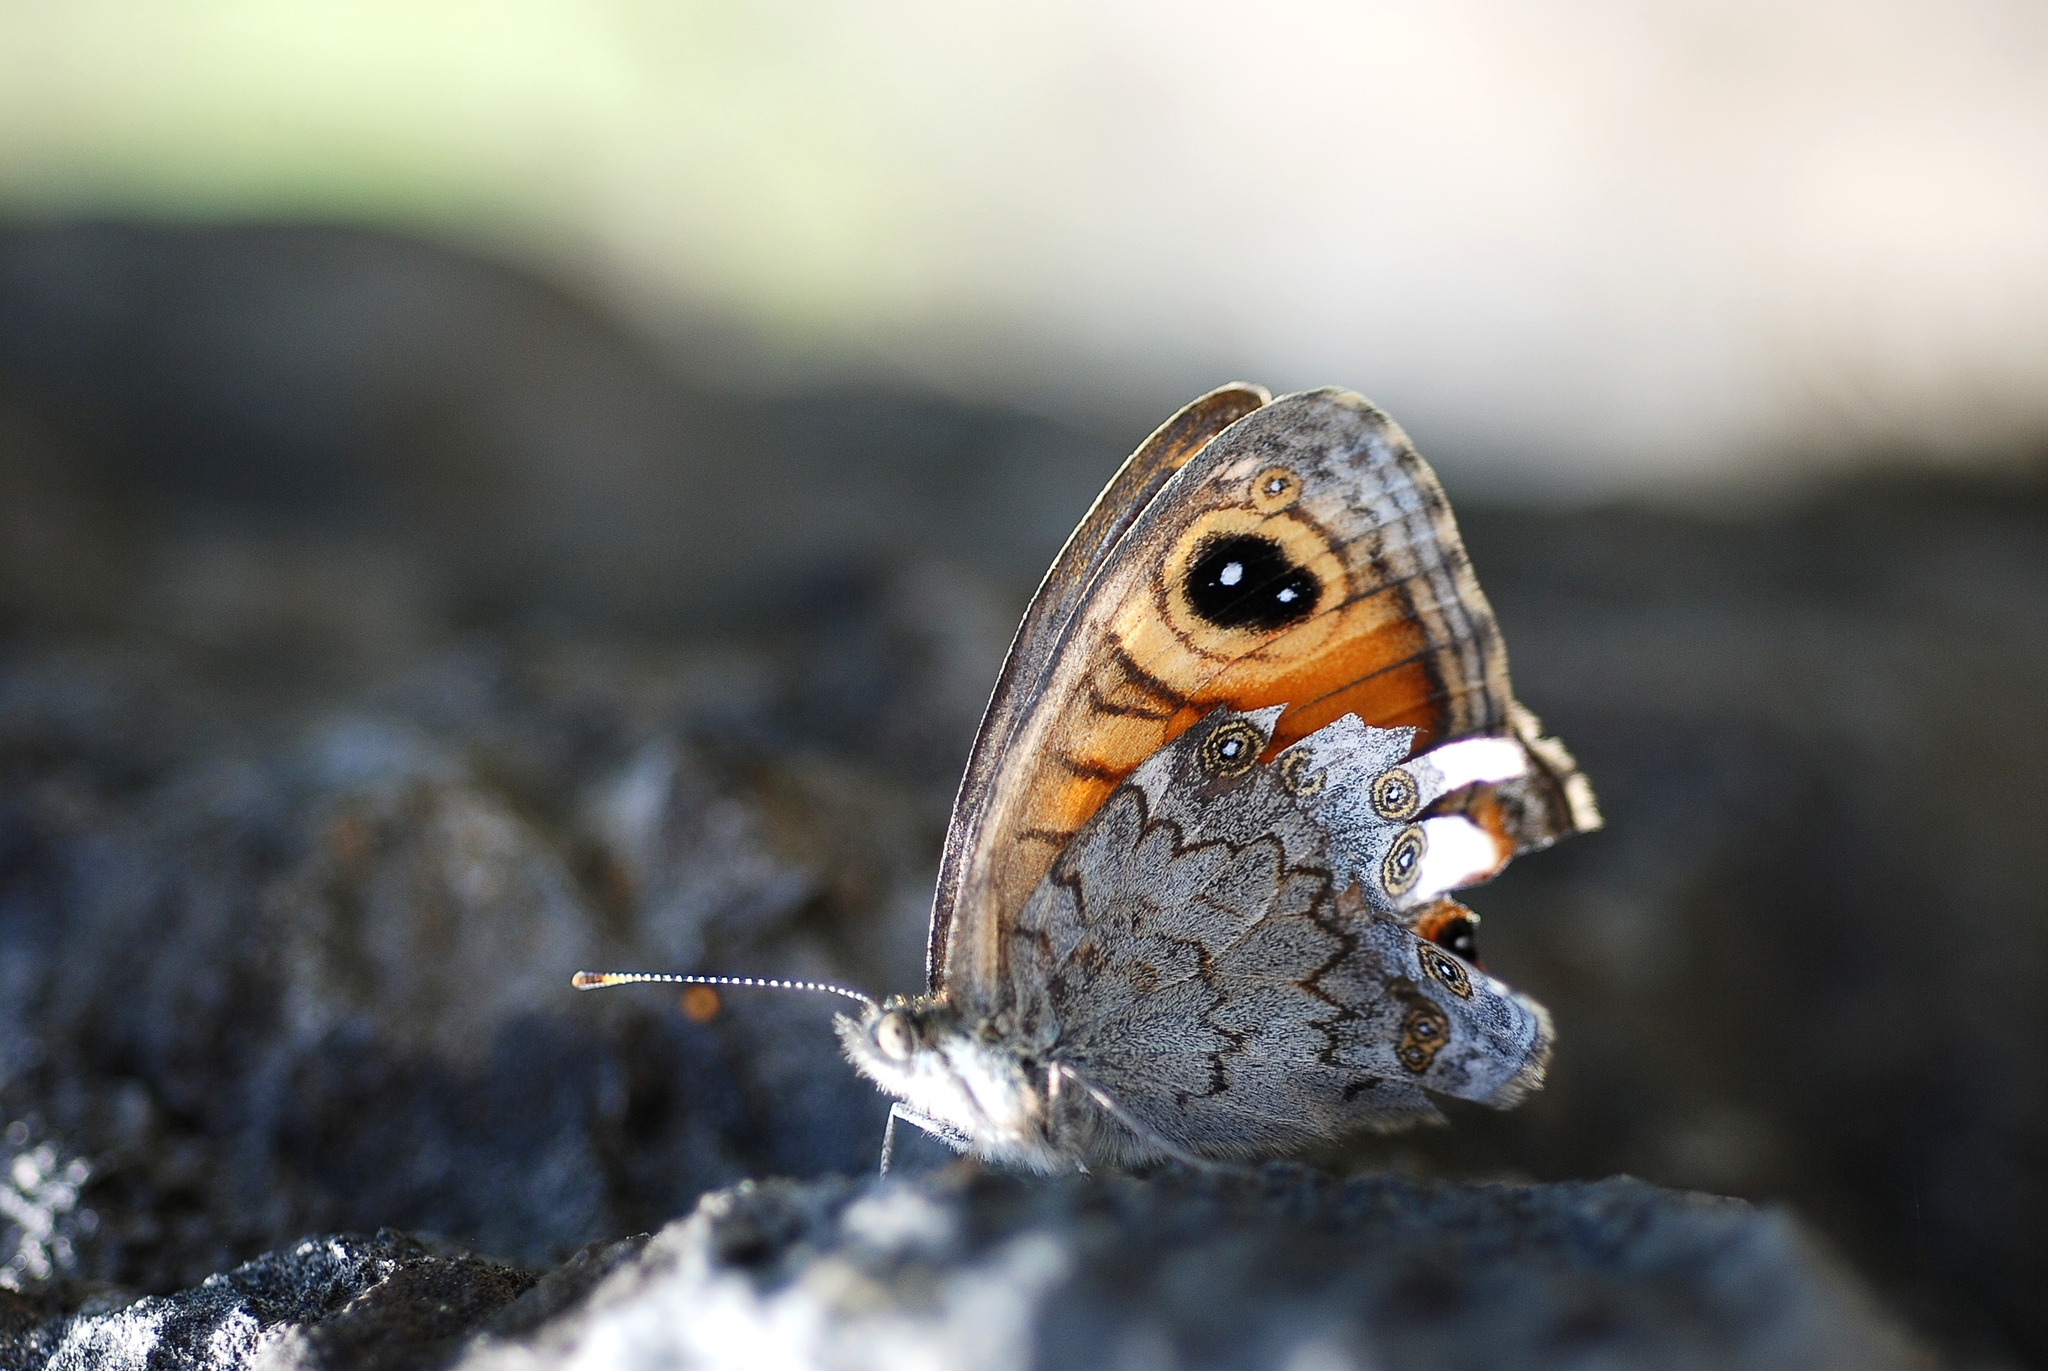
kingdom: Animalia
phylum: Arthropoda
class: Insecta
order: Lepidoptera
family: Nymphalidae
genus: Pararge
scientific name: Pararge Lasiommata maera
